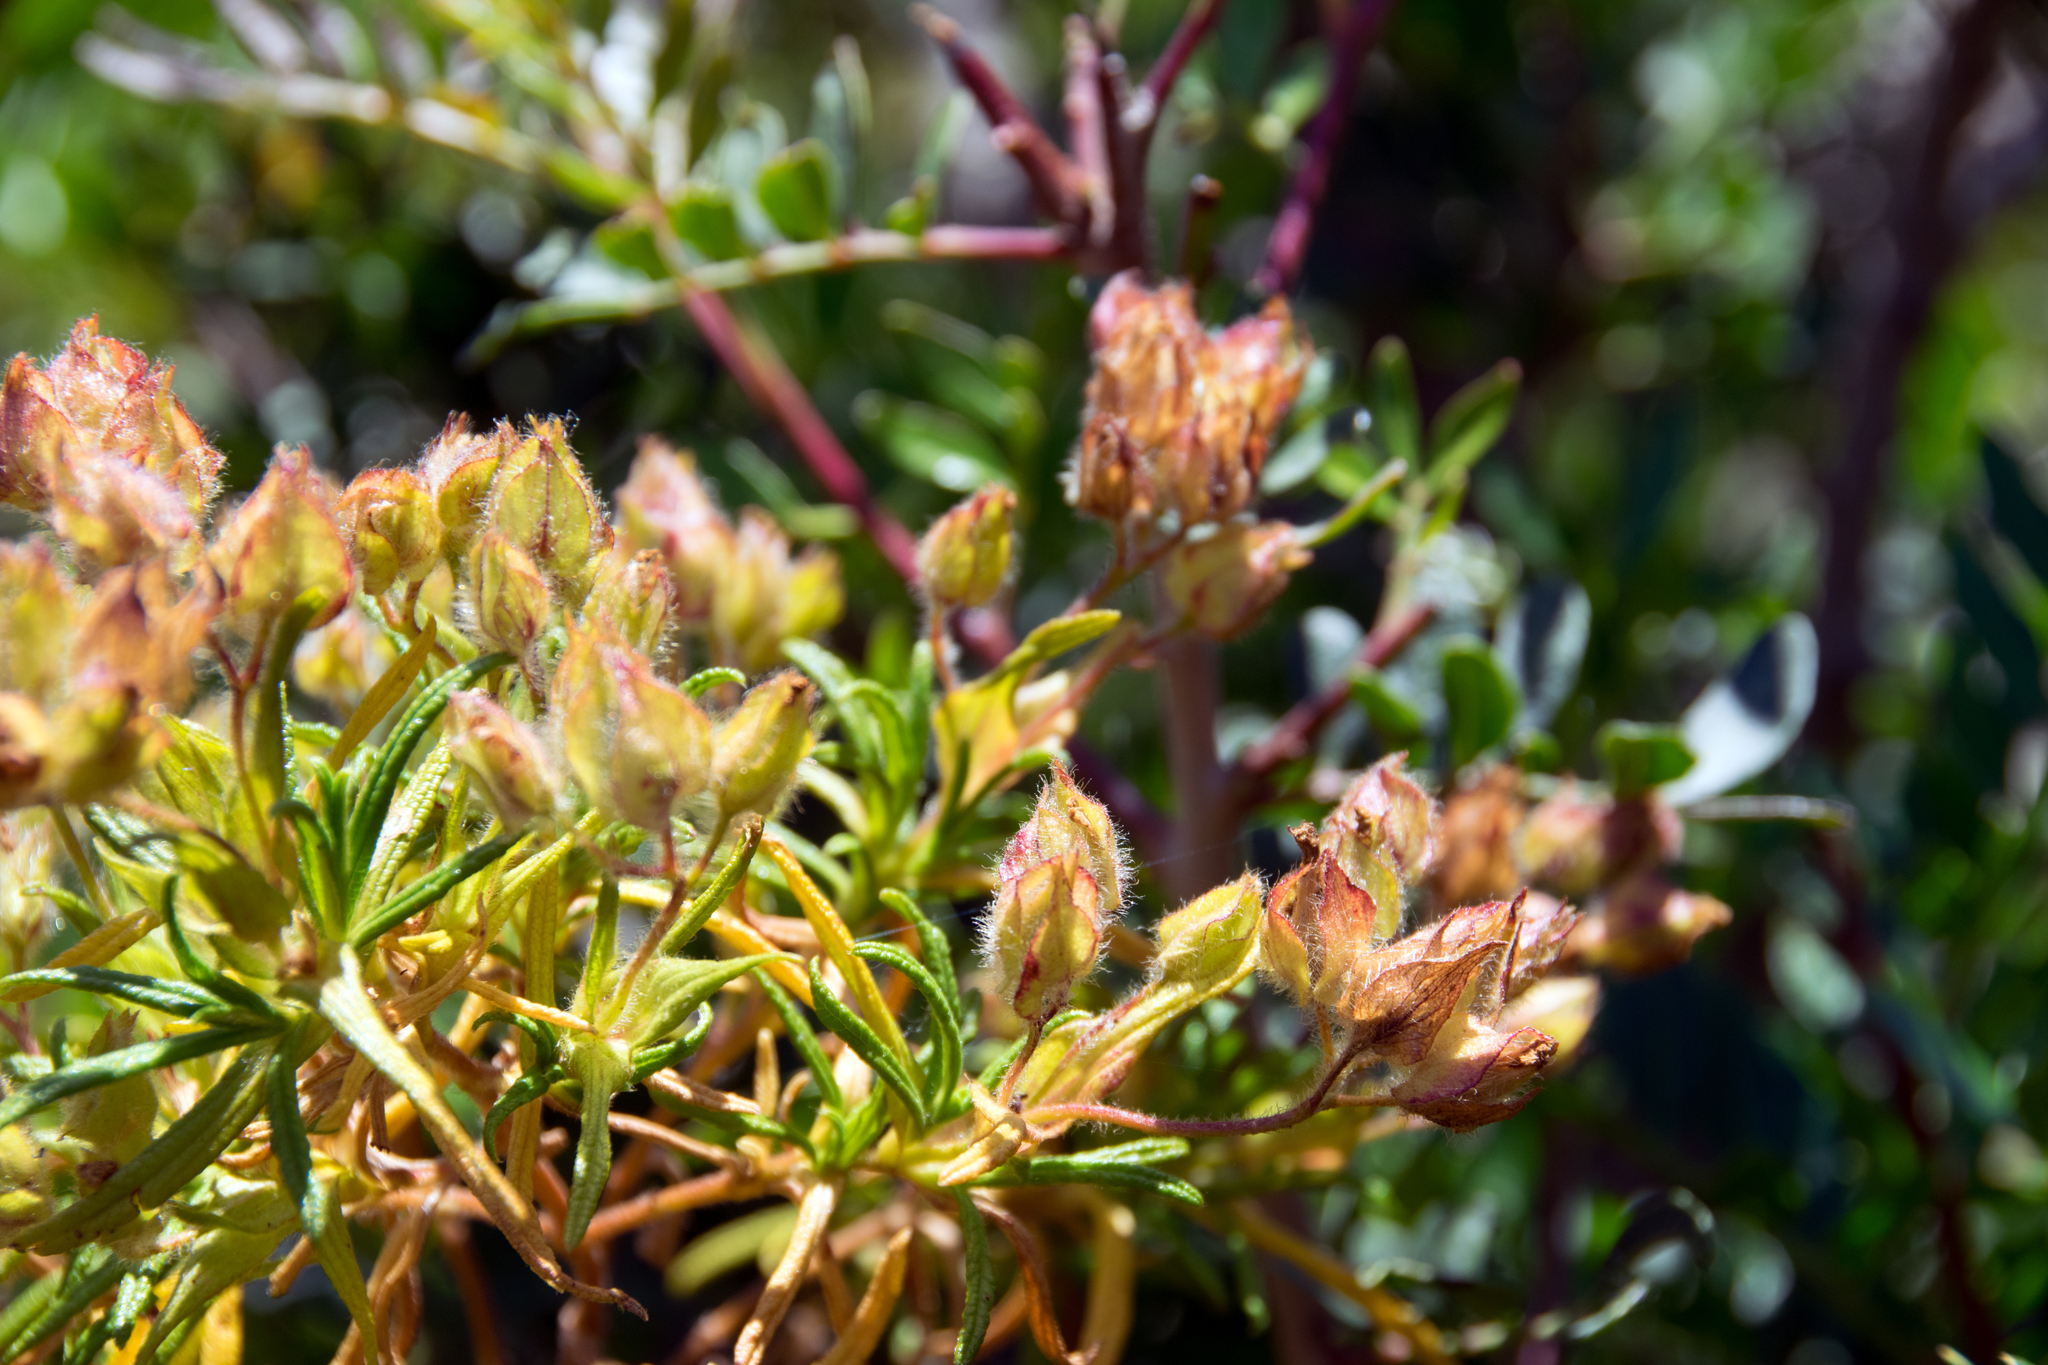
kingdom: Plantae
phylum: Tracheophyta
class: Magnoliopsida
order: Malvales
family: Cistaceae
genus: Cistus
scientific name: Cistus monspeliensis
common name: Montpelier cistus
